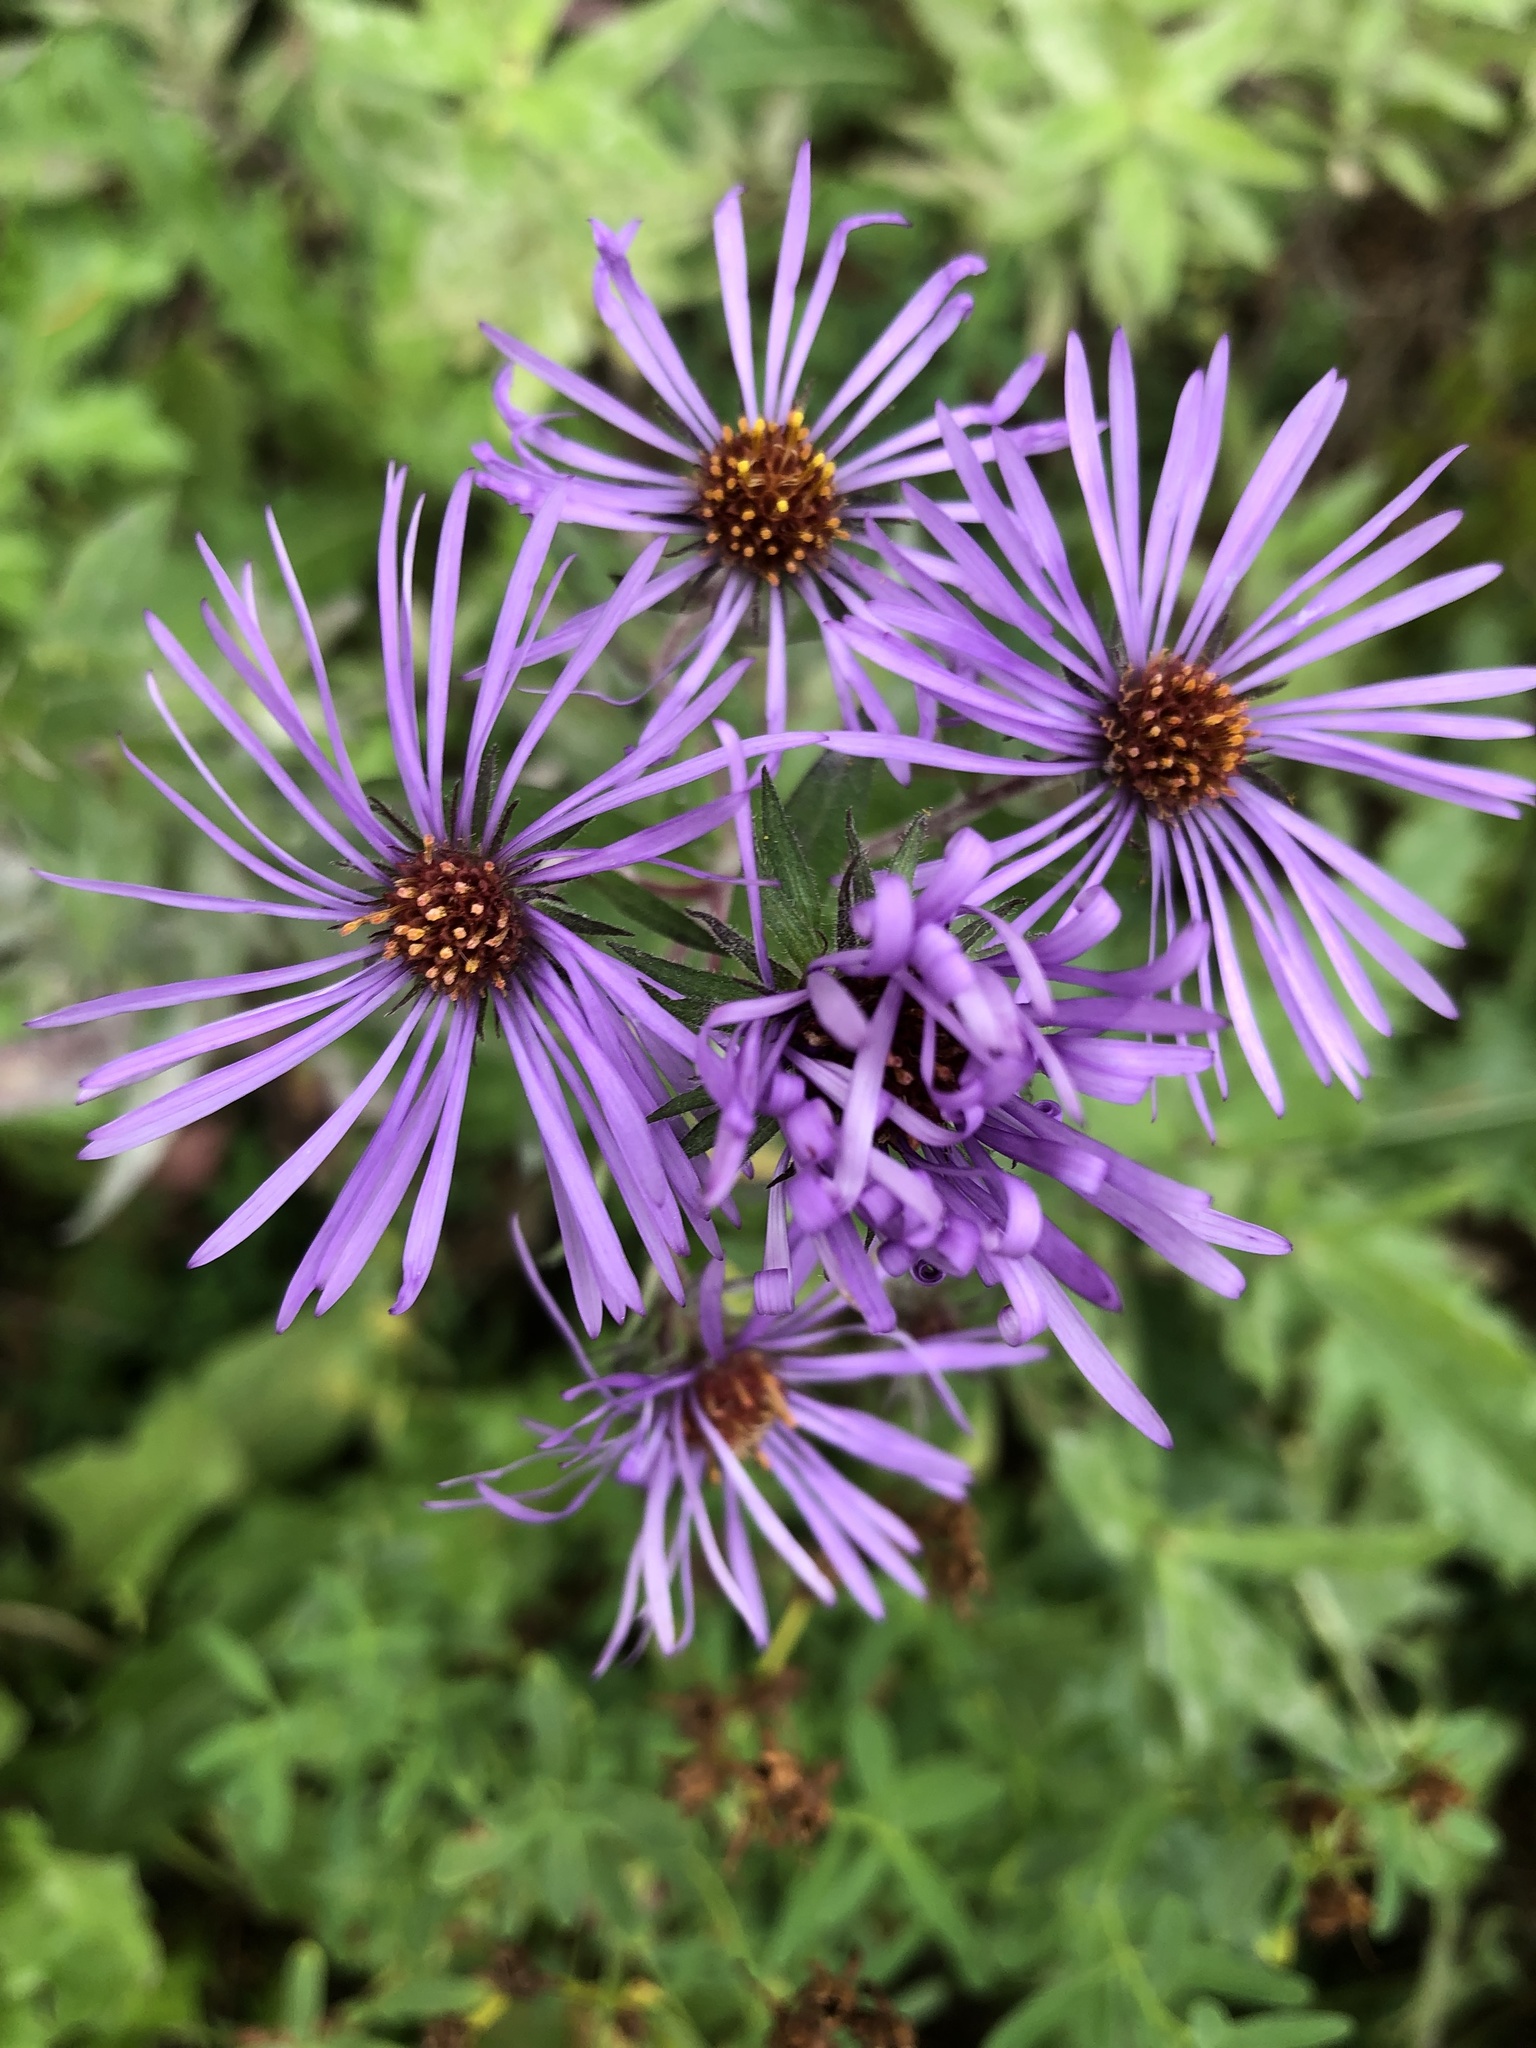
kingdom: Plantae
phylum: Tracheophyta
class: Magnoliopsida
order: Asterales
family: Asteraceae
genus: Symphyotrichum
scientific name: Symphyotrichum novae-angliae
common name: Michaelmas daisy
